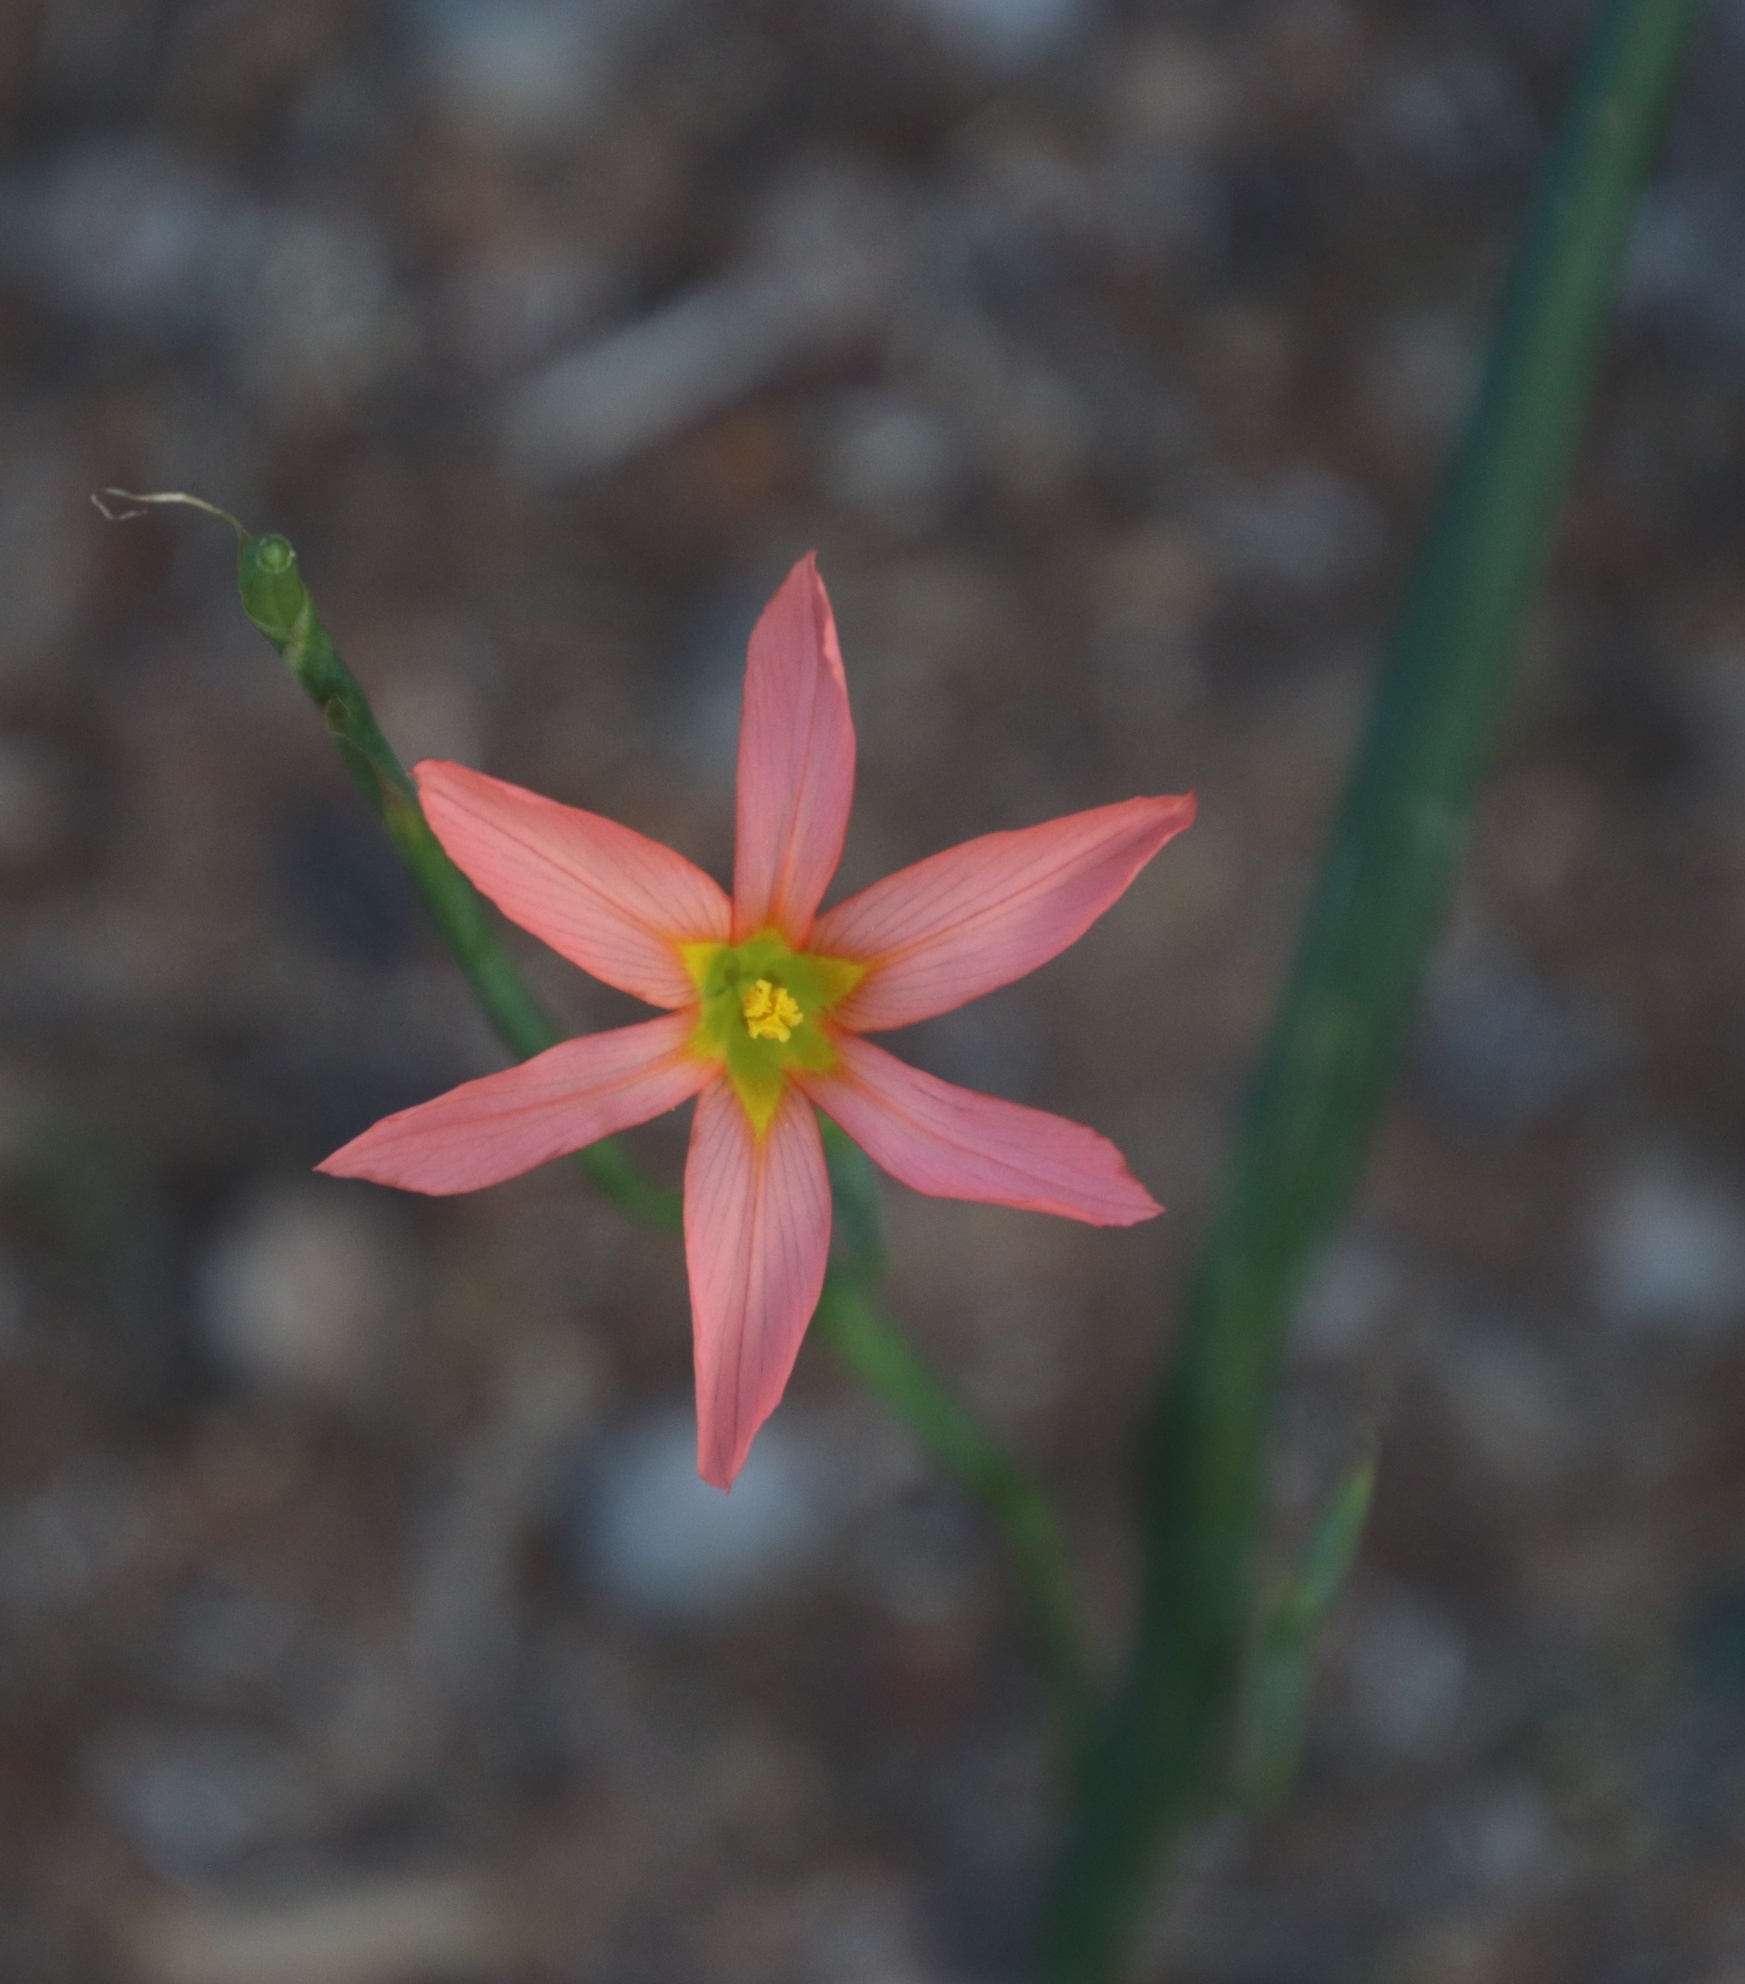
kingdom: Plantae
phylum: Tracheophyta
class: Liliopsida
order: Asparagales
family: Iridaceae
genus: Moraea
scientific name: Moraea flaccida
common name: One-leaf cape-tulip
